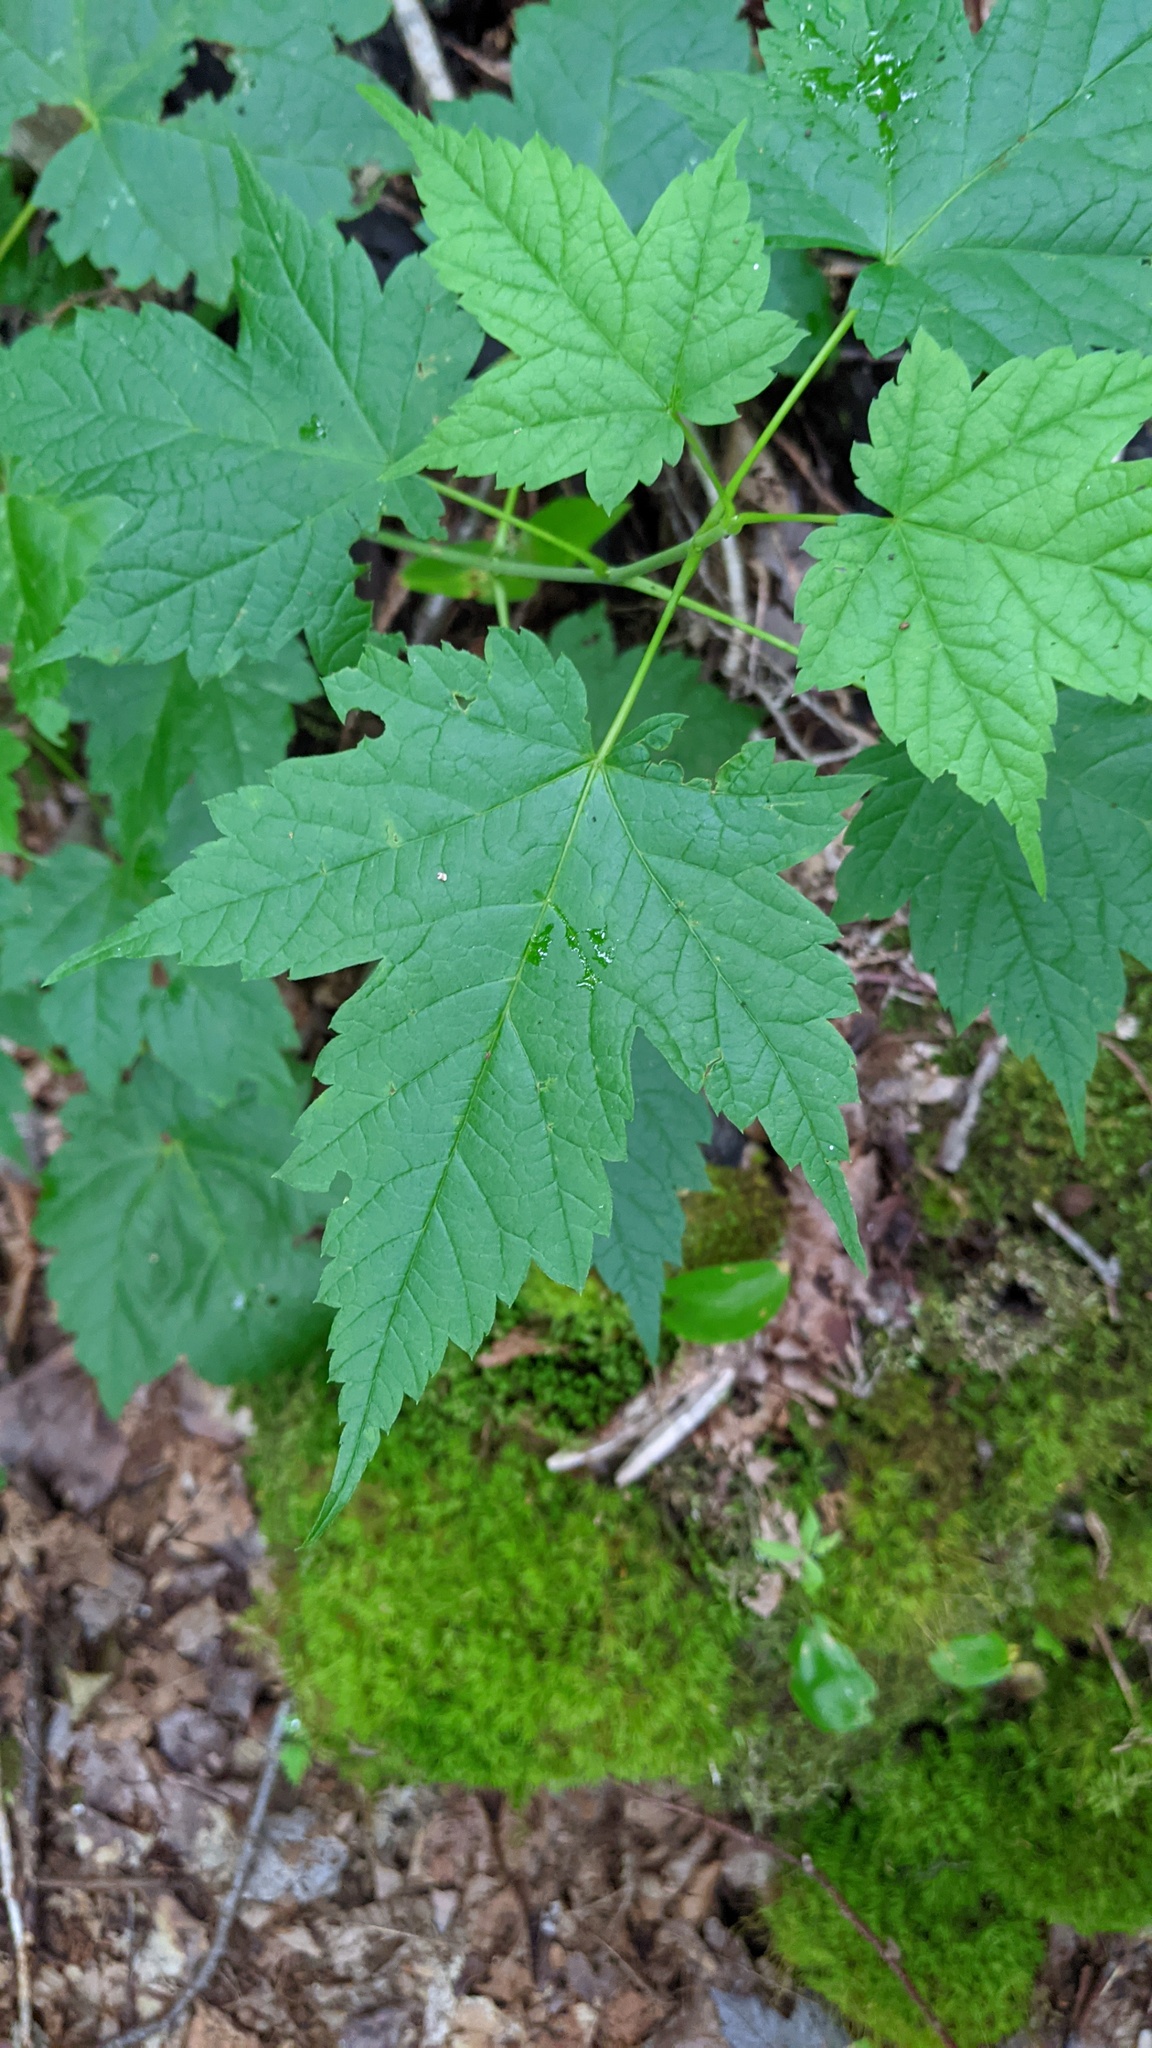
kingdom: Plantae
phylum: Tracheophyta
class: Magnoliopsida
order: Sapindales
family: Sapindaceae
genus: Acer
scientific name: Acer spicatum
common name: Mountain maple
